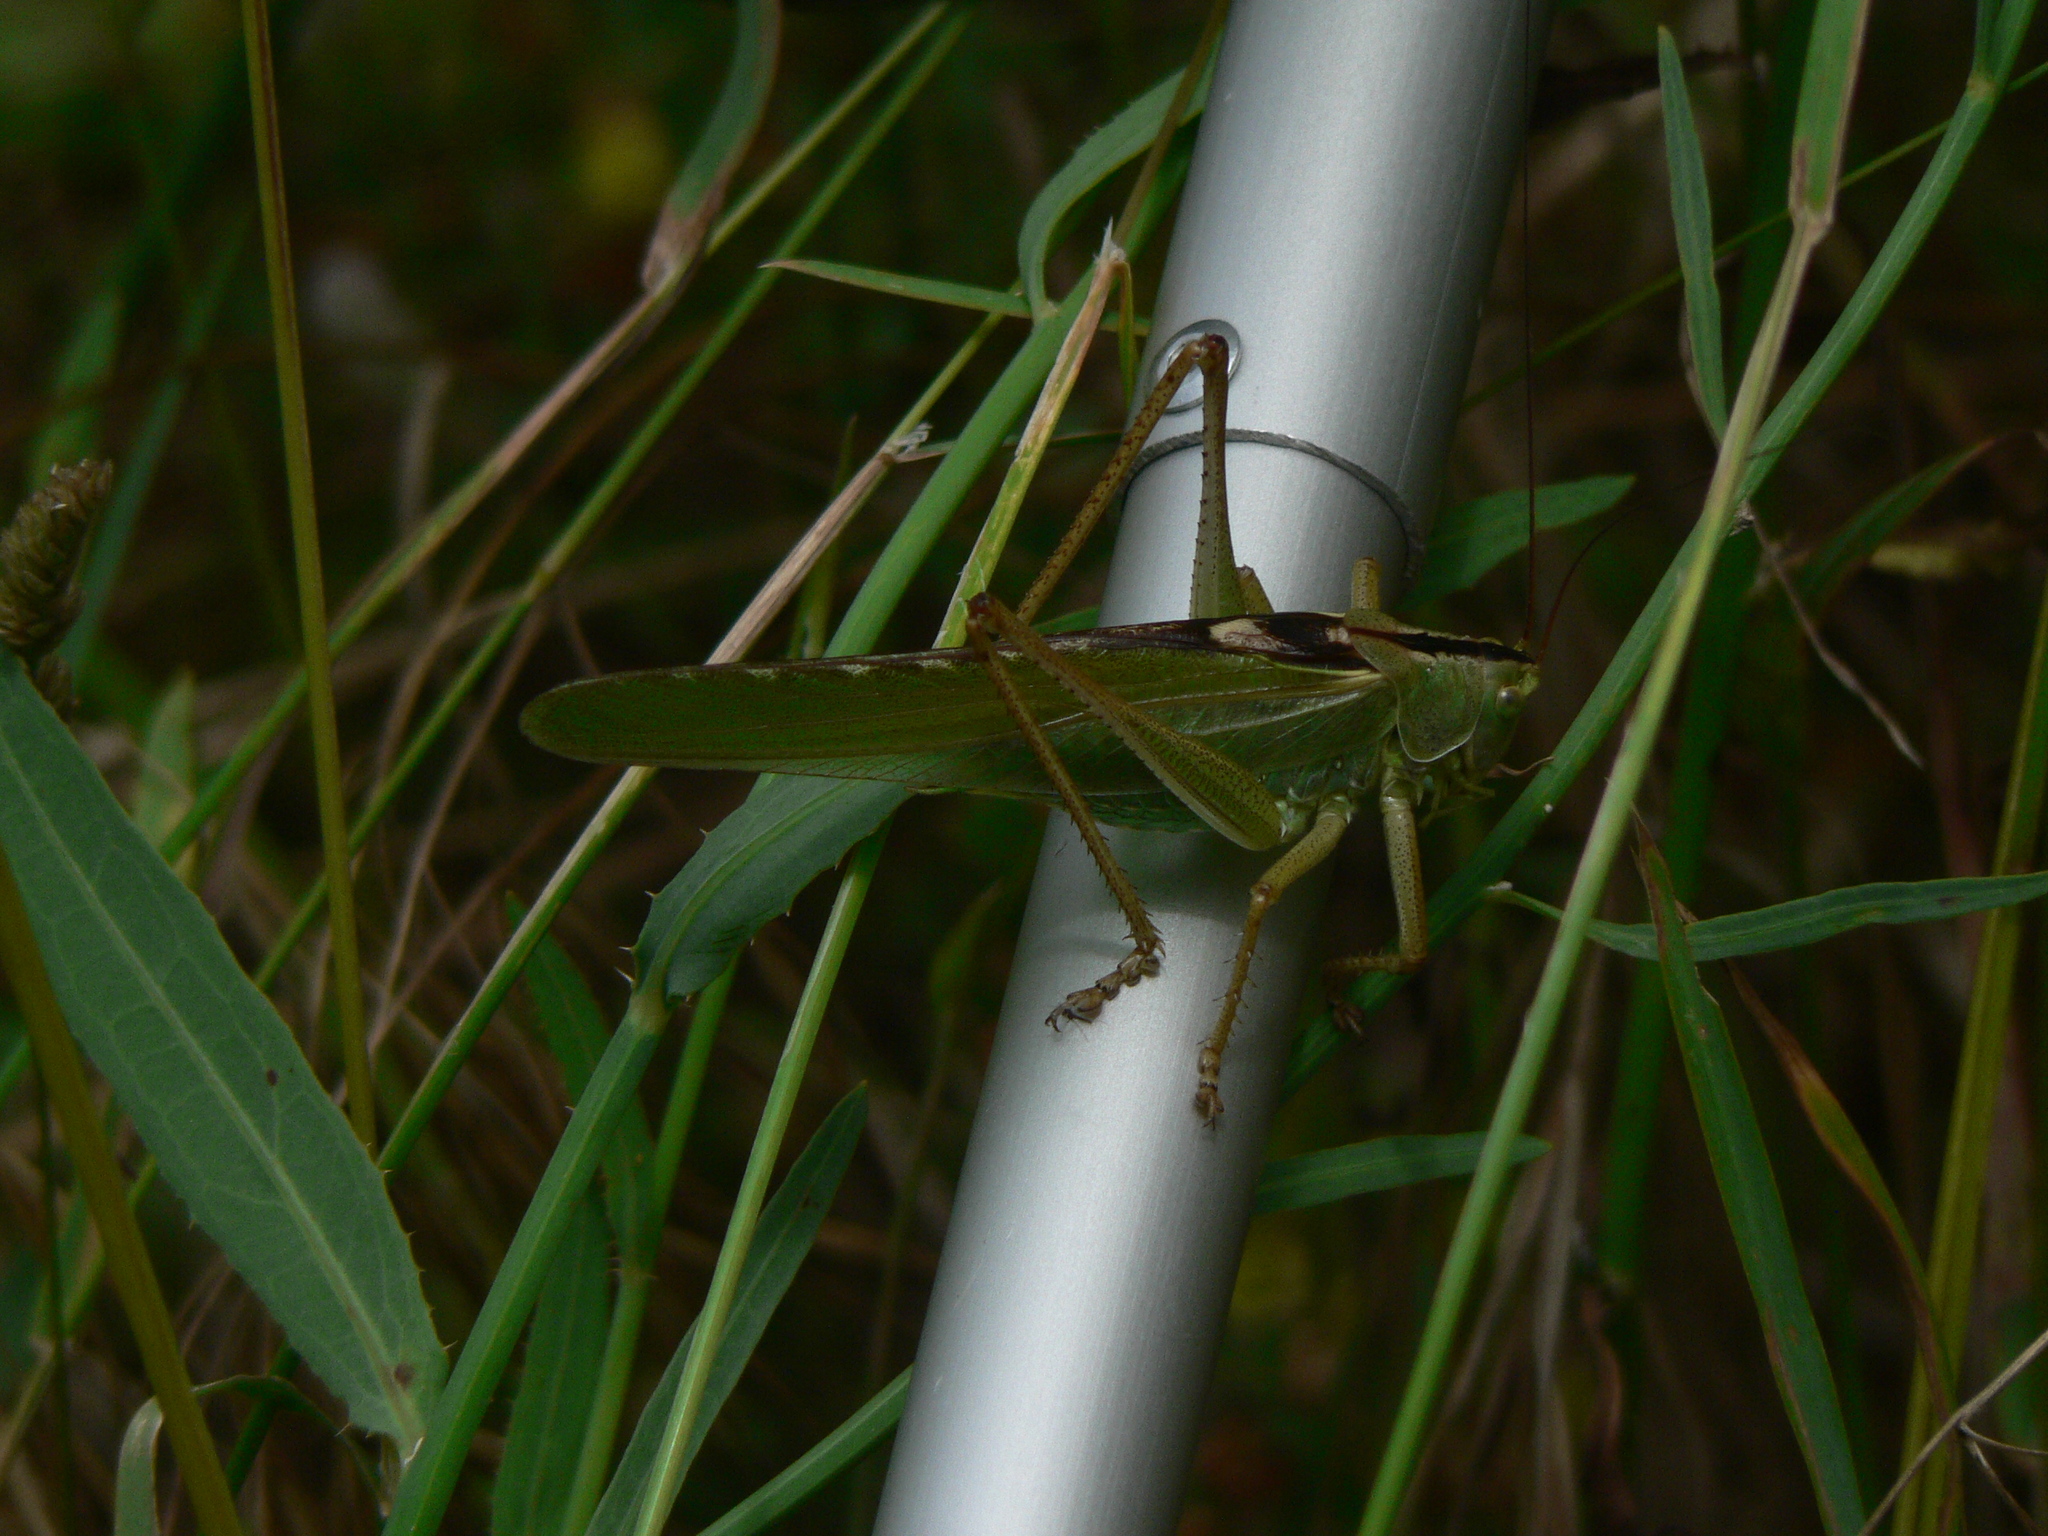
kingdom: Animalia
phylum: Arthropoda
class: Insecta
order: Orthoptera
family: Tettigoniidae
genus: Tettigonia
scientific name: Tettigonia viridissima
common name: Great green bush-cricket
